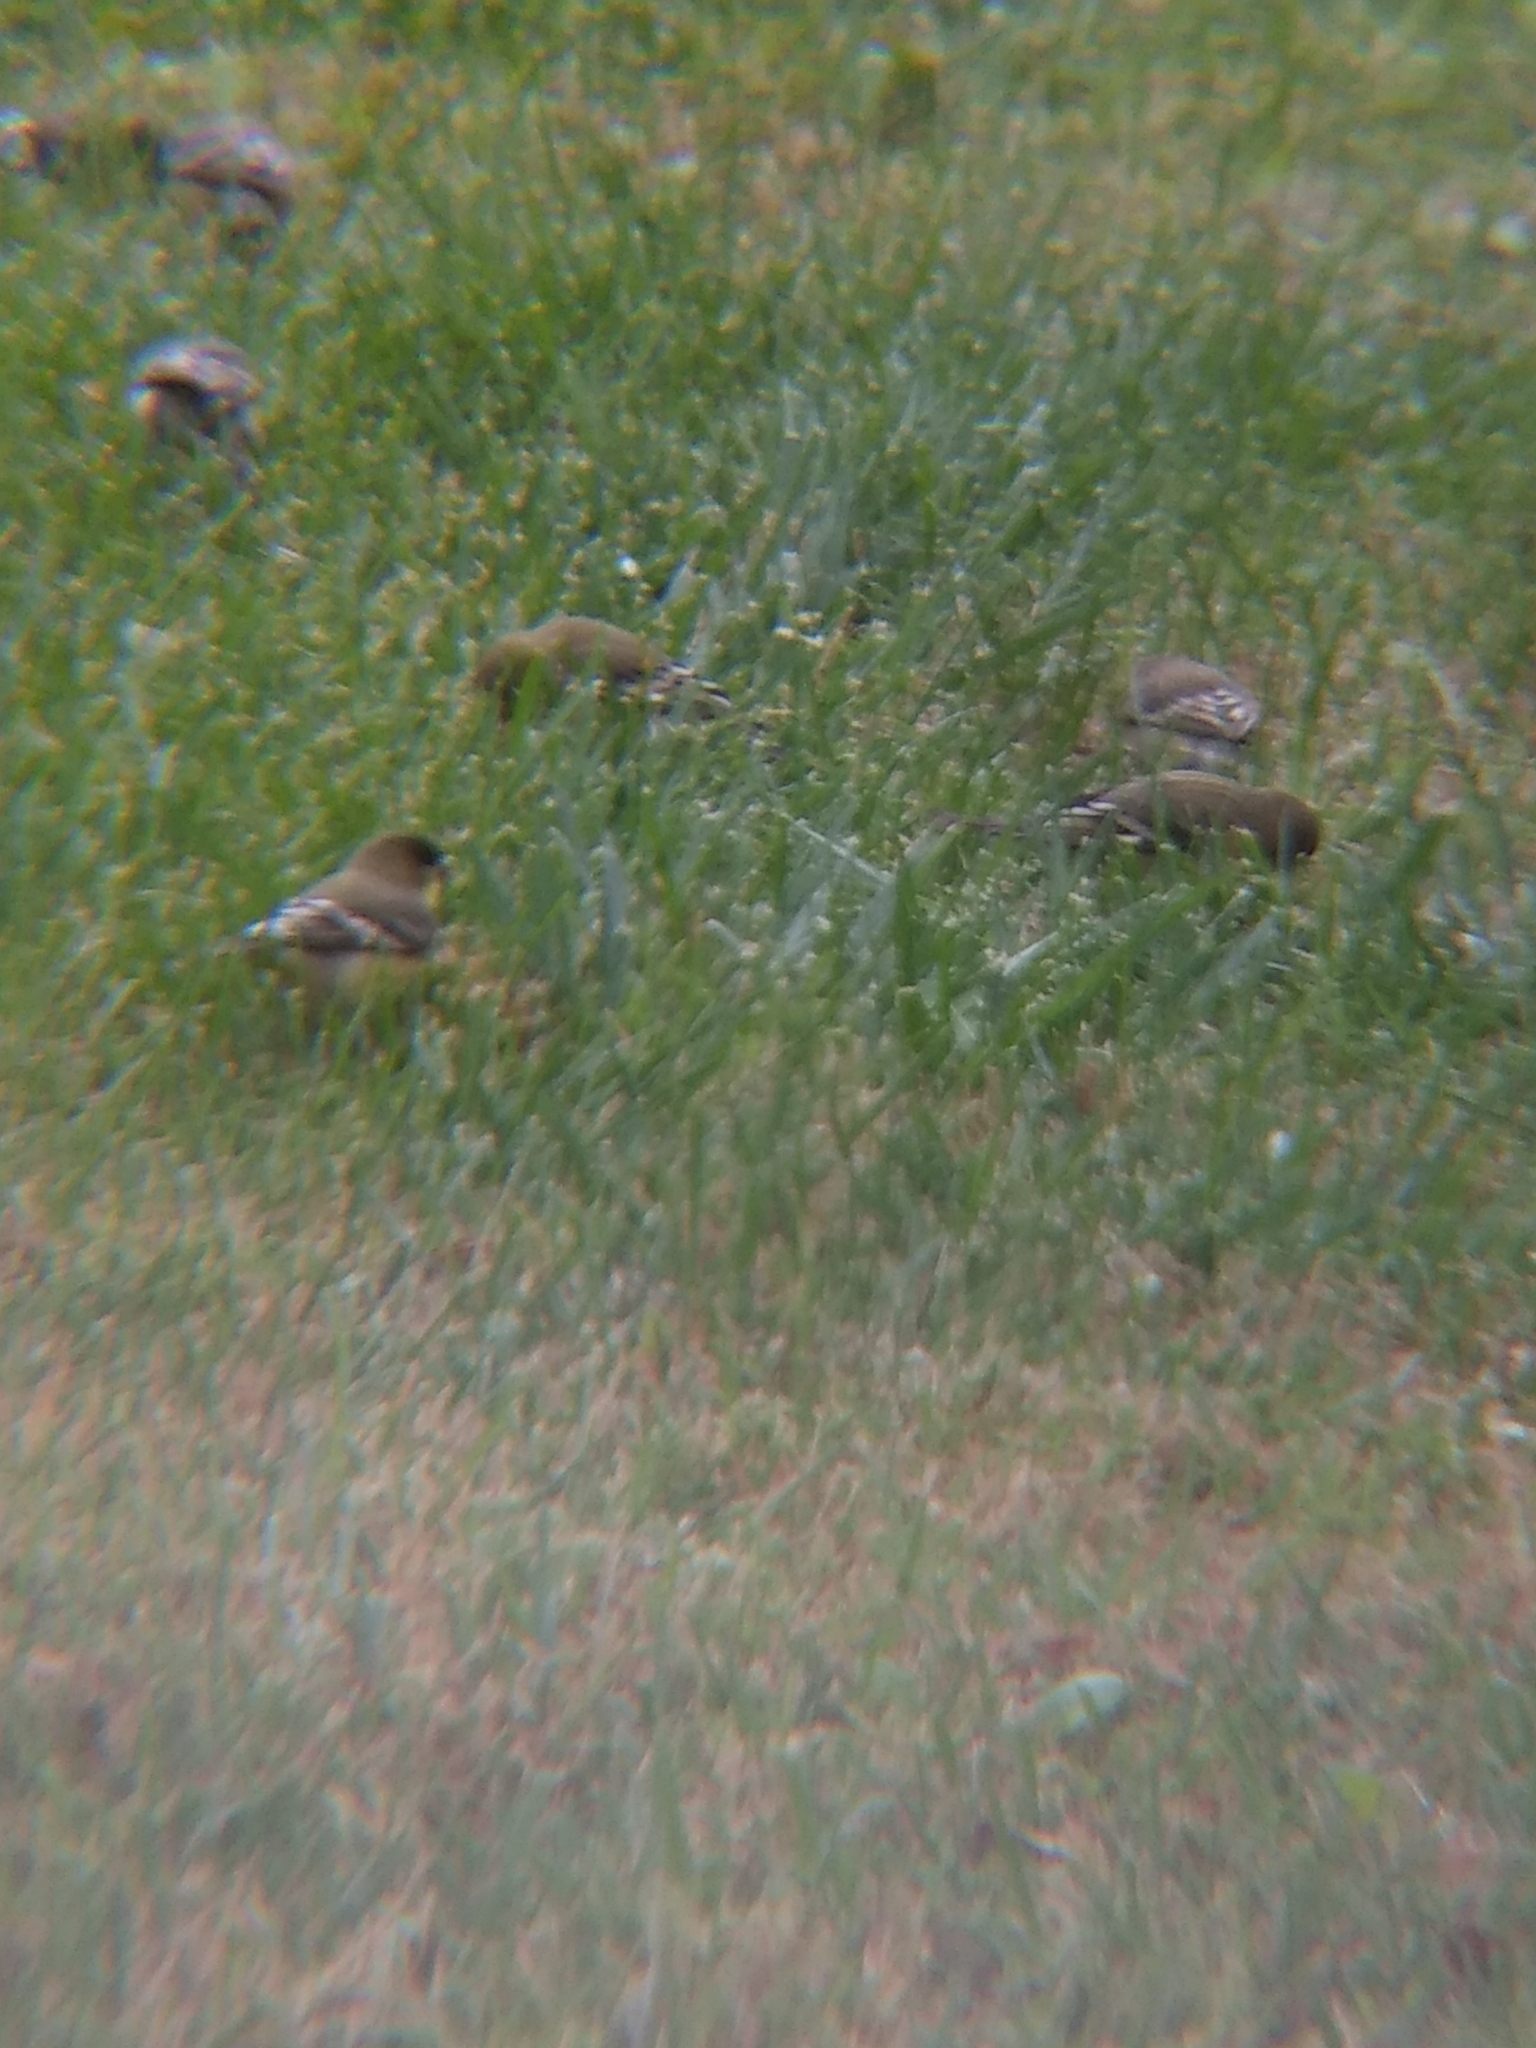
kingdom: Animalia
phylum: Chordata
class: Aves
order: Passeriformes
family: Fringillidae
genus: Spinus
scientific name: Spinus psaltria
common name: Lesser goldfinch
